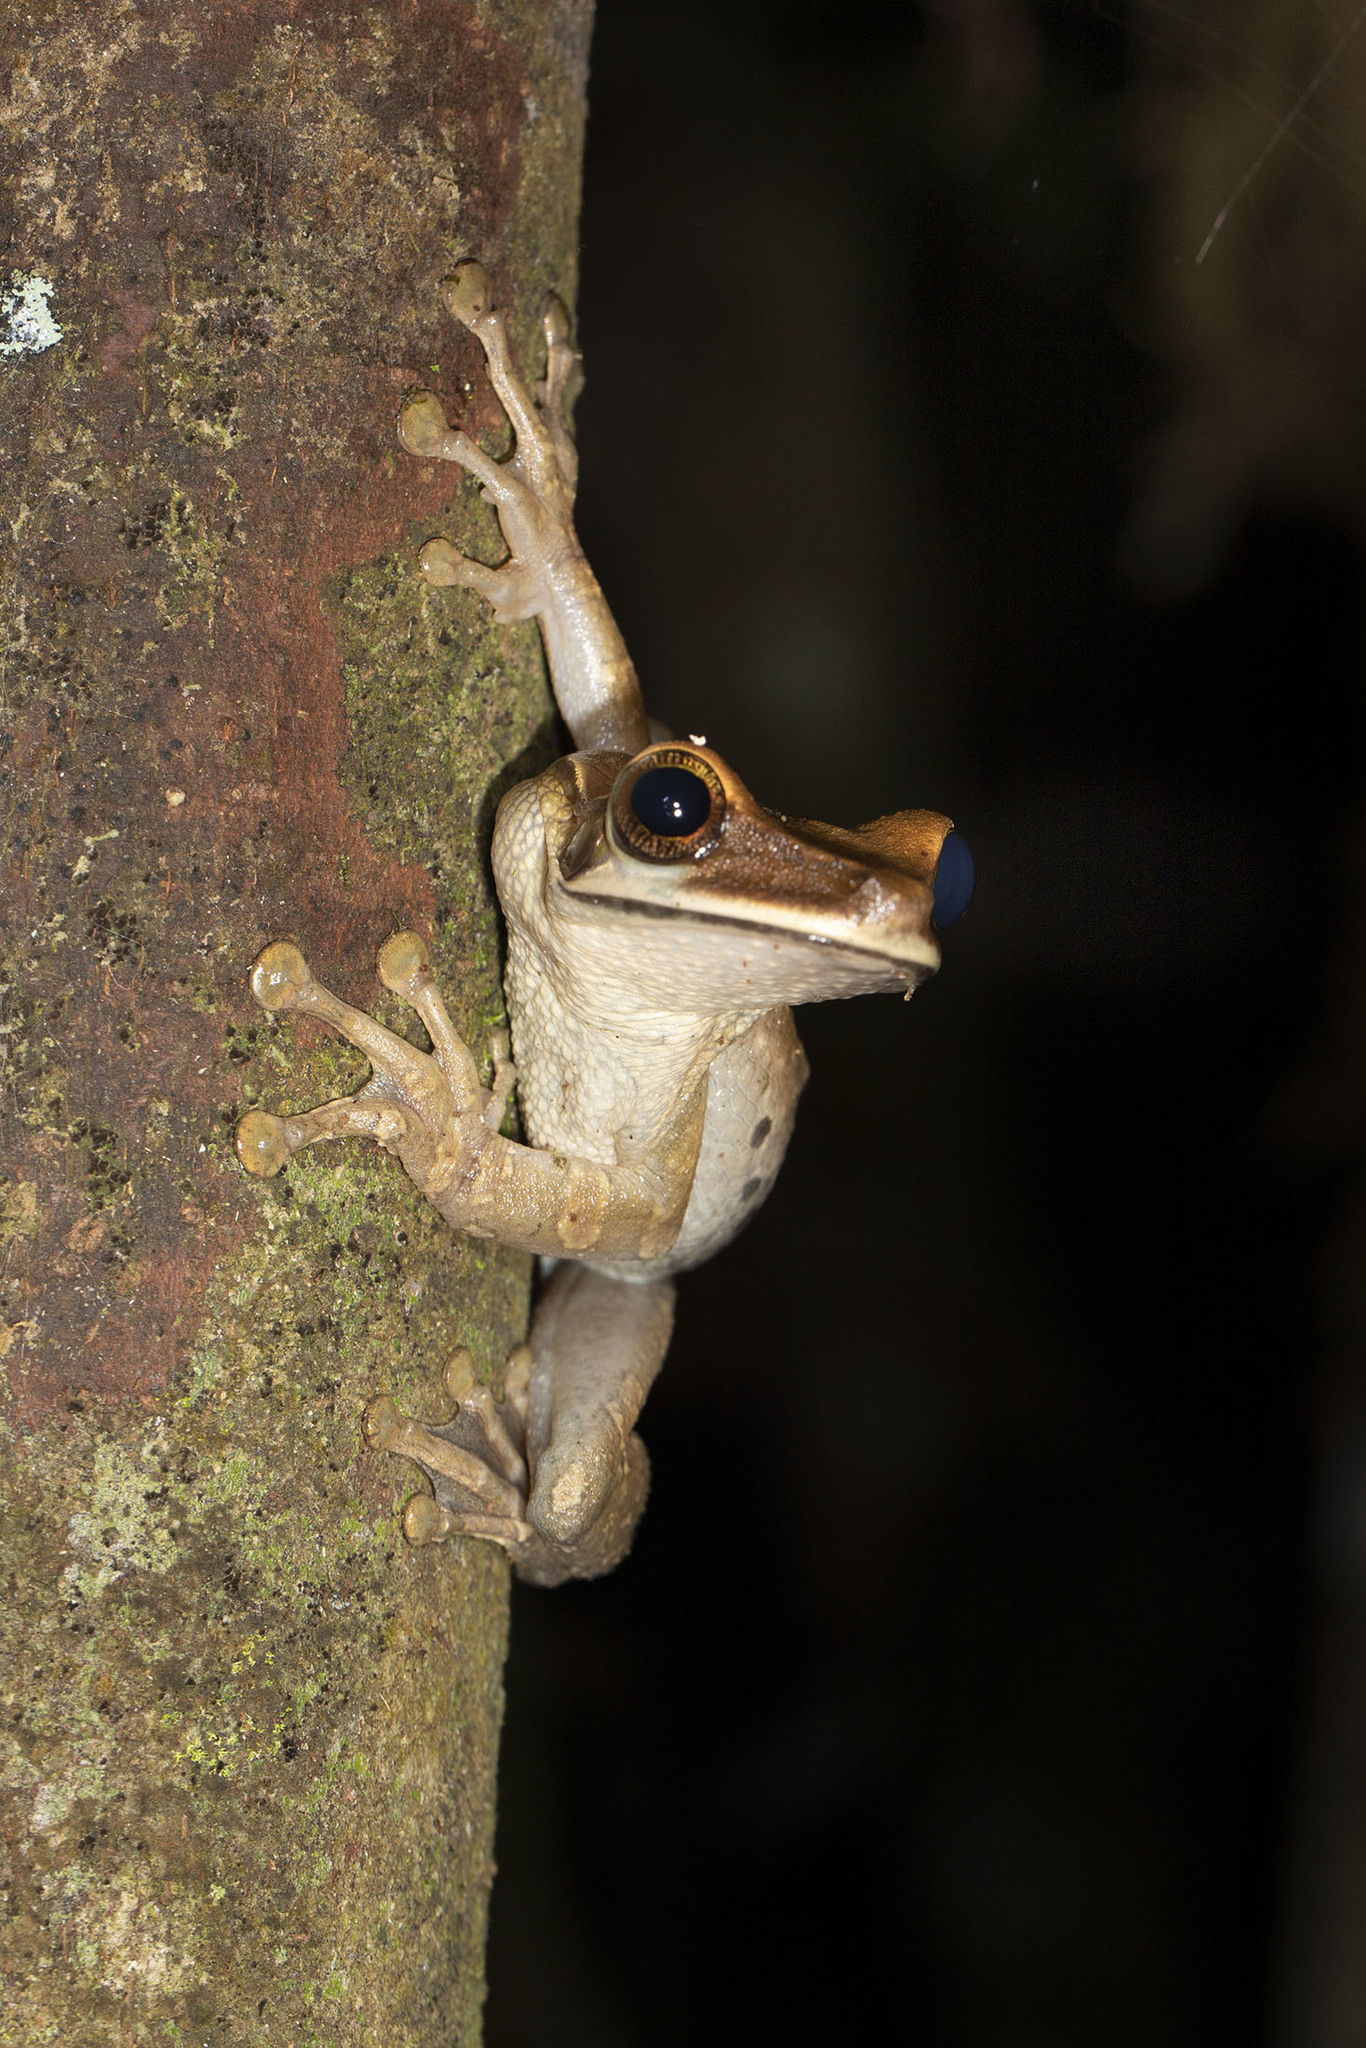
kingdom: Animalia
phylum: Chordata
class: Amphibia
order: Anura
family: Hylidae
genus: Osteocephalus
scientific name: Osteocephalus planiceps
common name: Flat headed bromeliad treefrog
